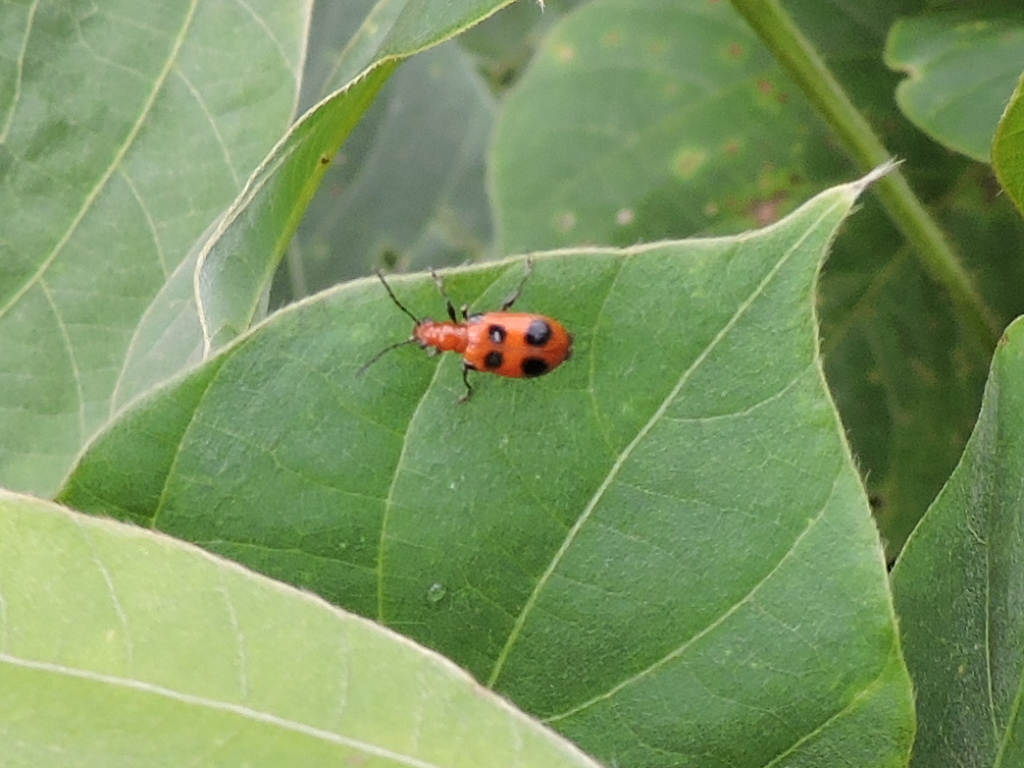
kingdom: Animalia
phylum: Arthropoda
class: Insecta
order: Coleoptera
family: Chrysomelidae
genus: Neolema
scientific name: Neolema sexpunctata
